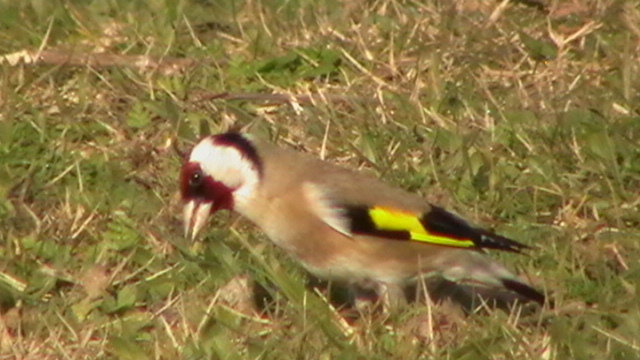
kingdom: Animalia
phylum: Chordata
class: Aves
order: Passeriformes
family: Fringillidae
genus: Carduelis
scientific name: Carduelis carduelis
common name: European goldfinch
